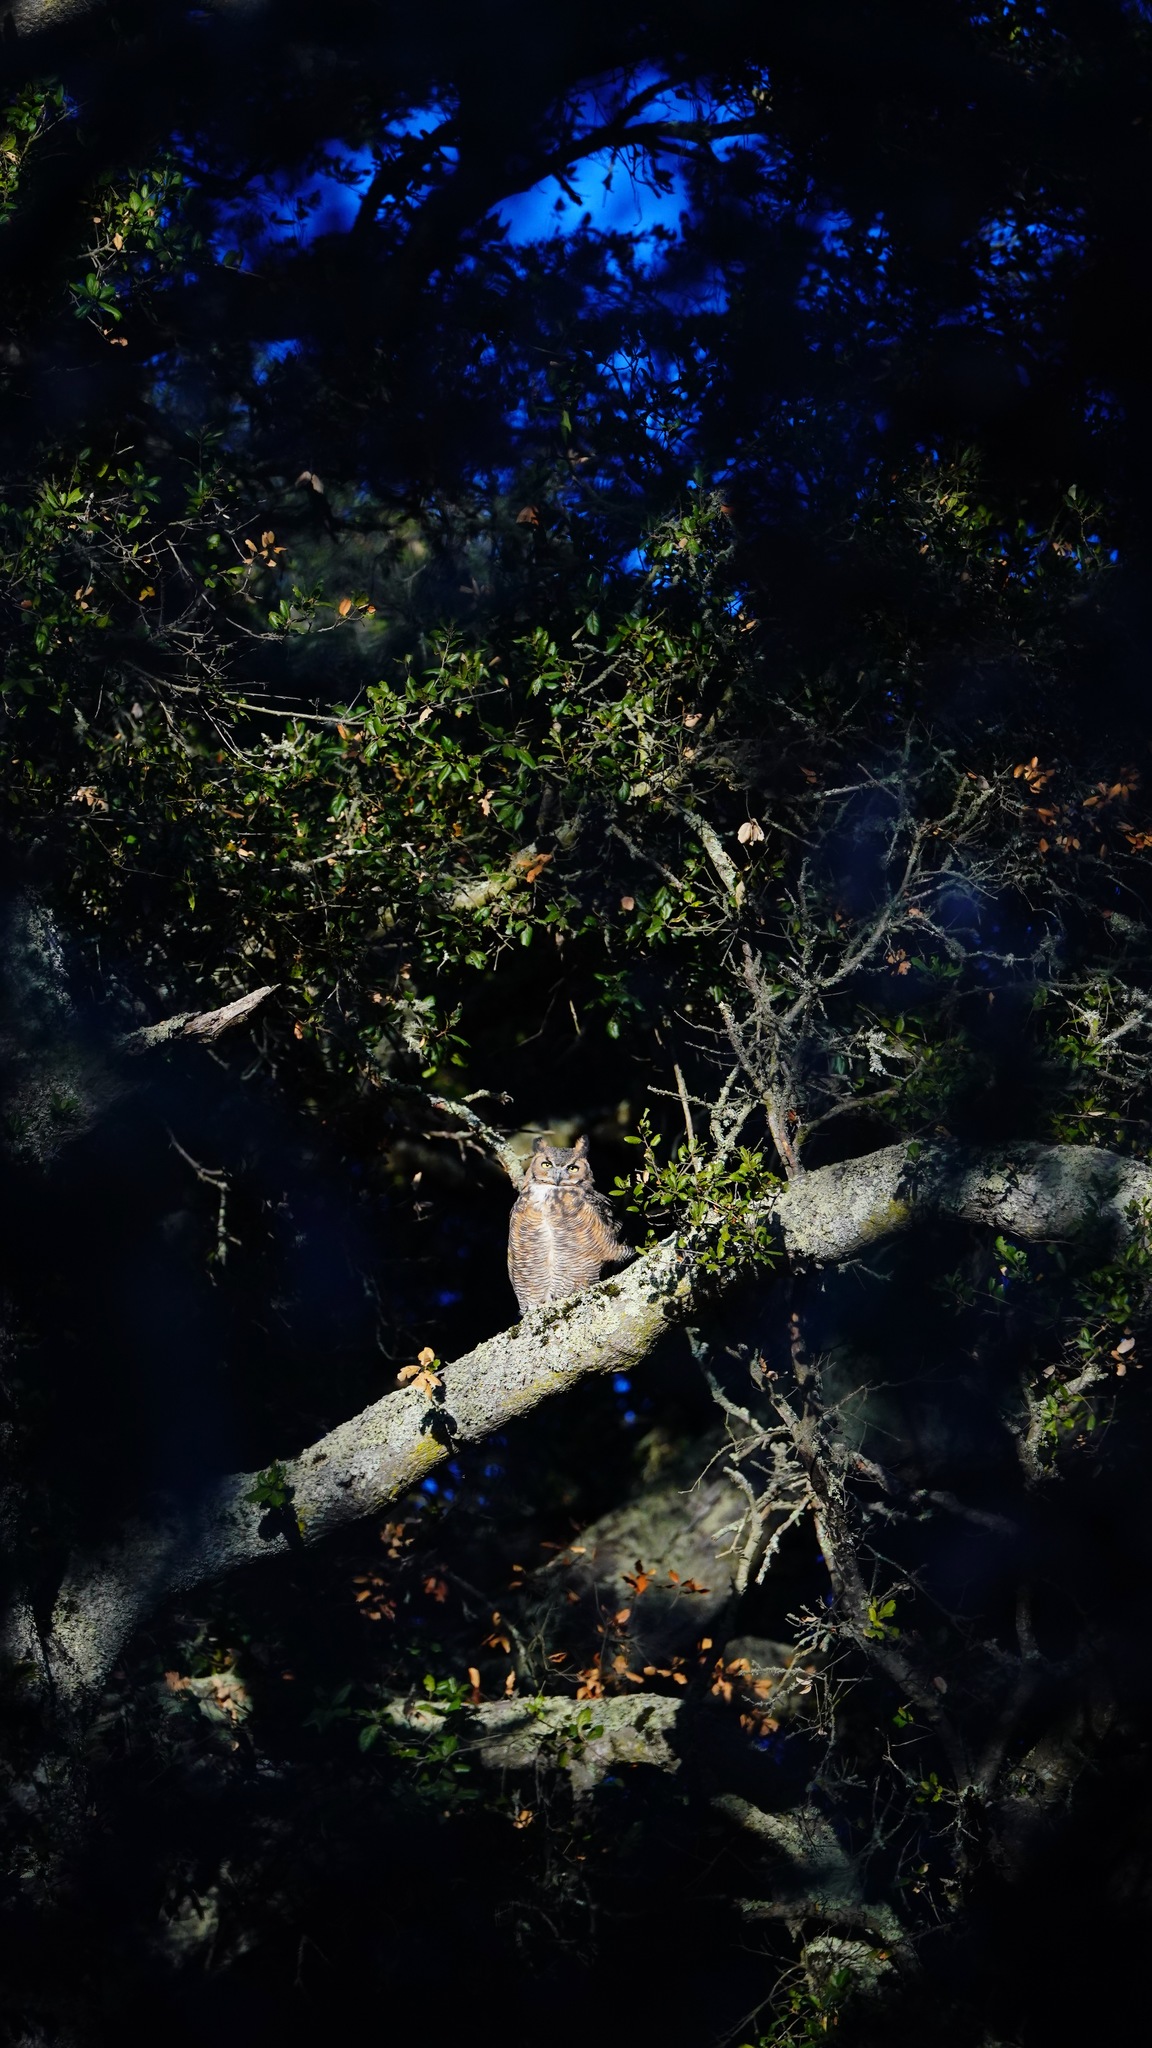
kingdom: Animalia
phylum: Chordata
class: Aves
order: Strigiformes
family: Strigidae
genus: Bubo
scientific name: Bubo virginianus
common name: Great horned owl
